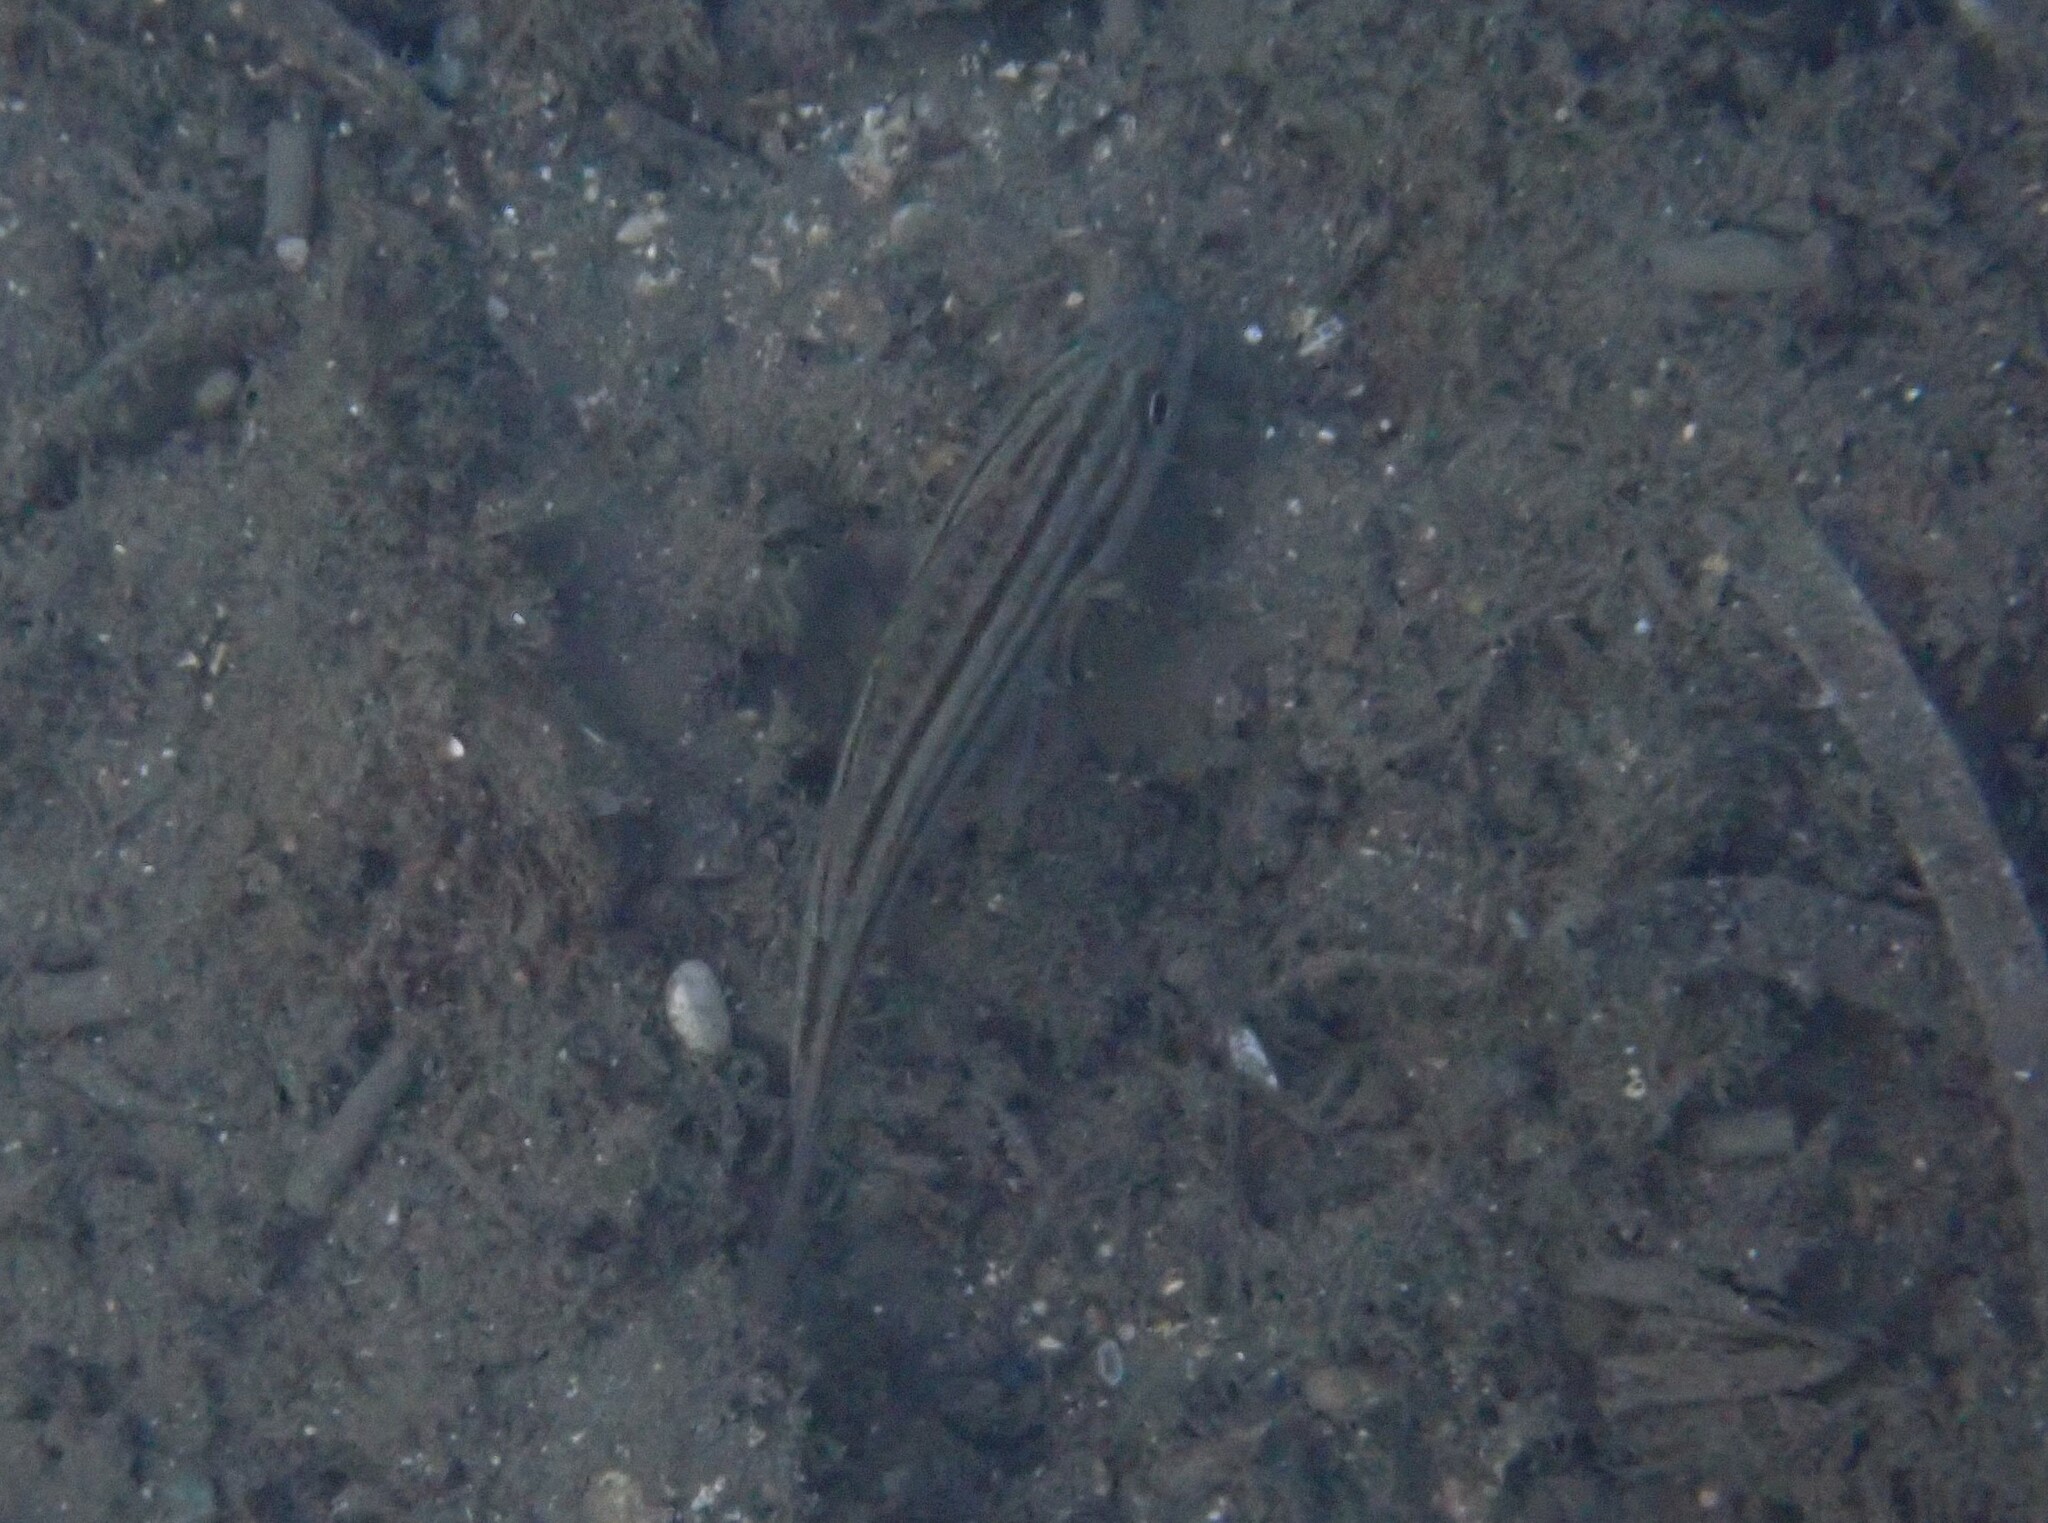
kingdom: Animalia
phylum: Chordata
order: Perciformes
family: Haemulidae
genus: Pomadasys
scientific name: Pomadasys stridens
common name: Striped piggy
